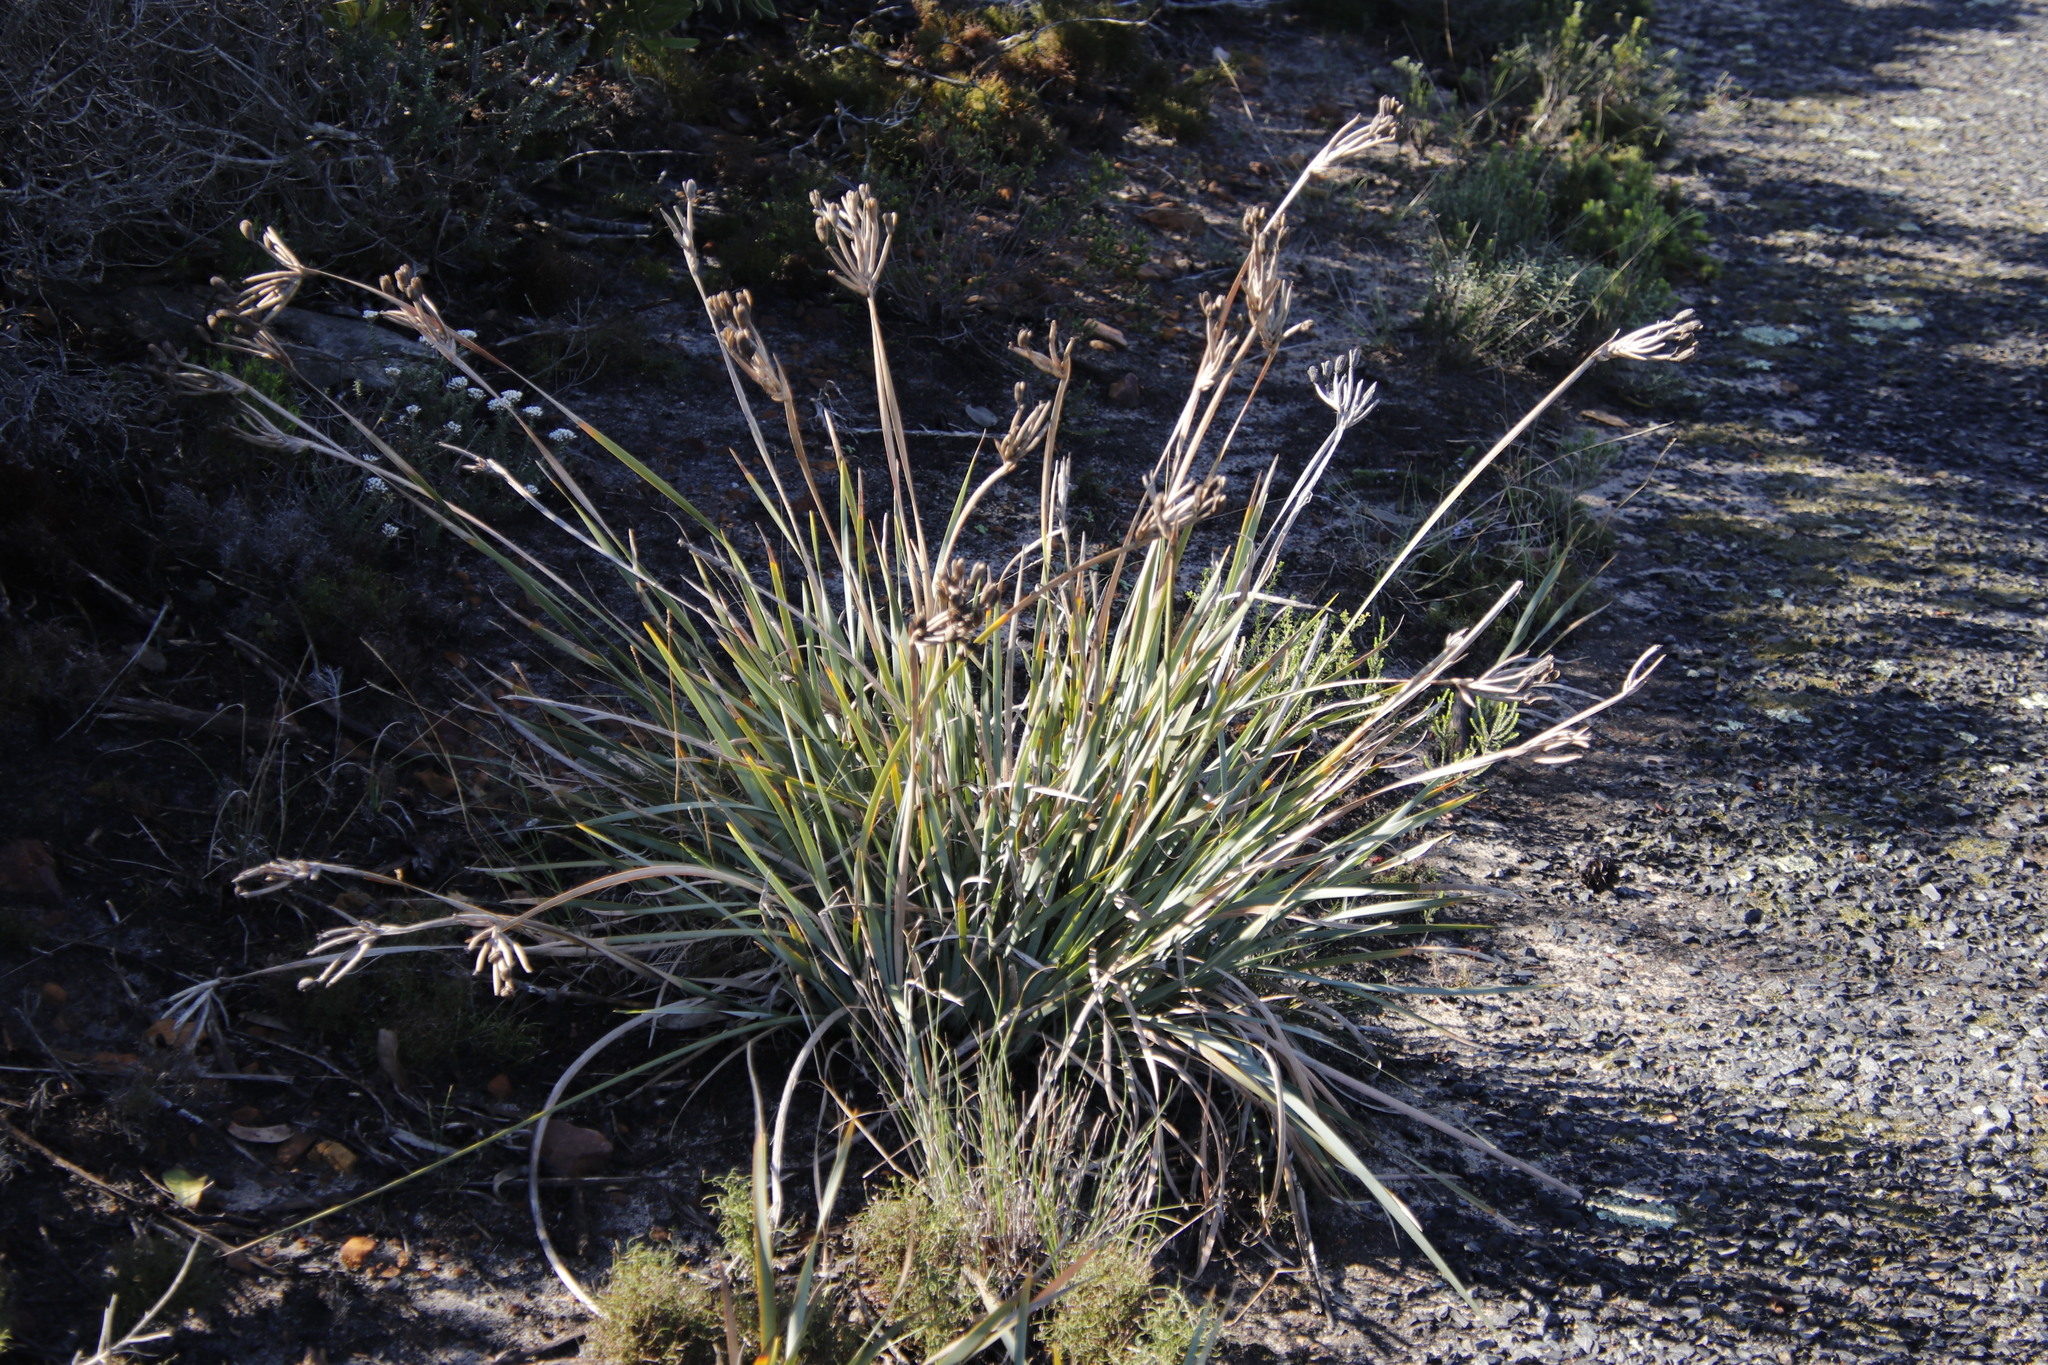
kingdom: Plantae
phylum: Tracheophyta
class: Liliopsida
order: Asparagales
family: Iridaceae
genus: Bobartia
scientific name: Bobartia gladiata
